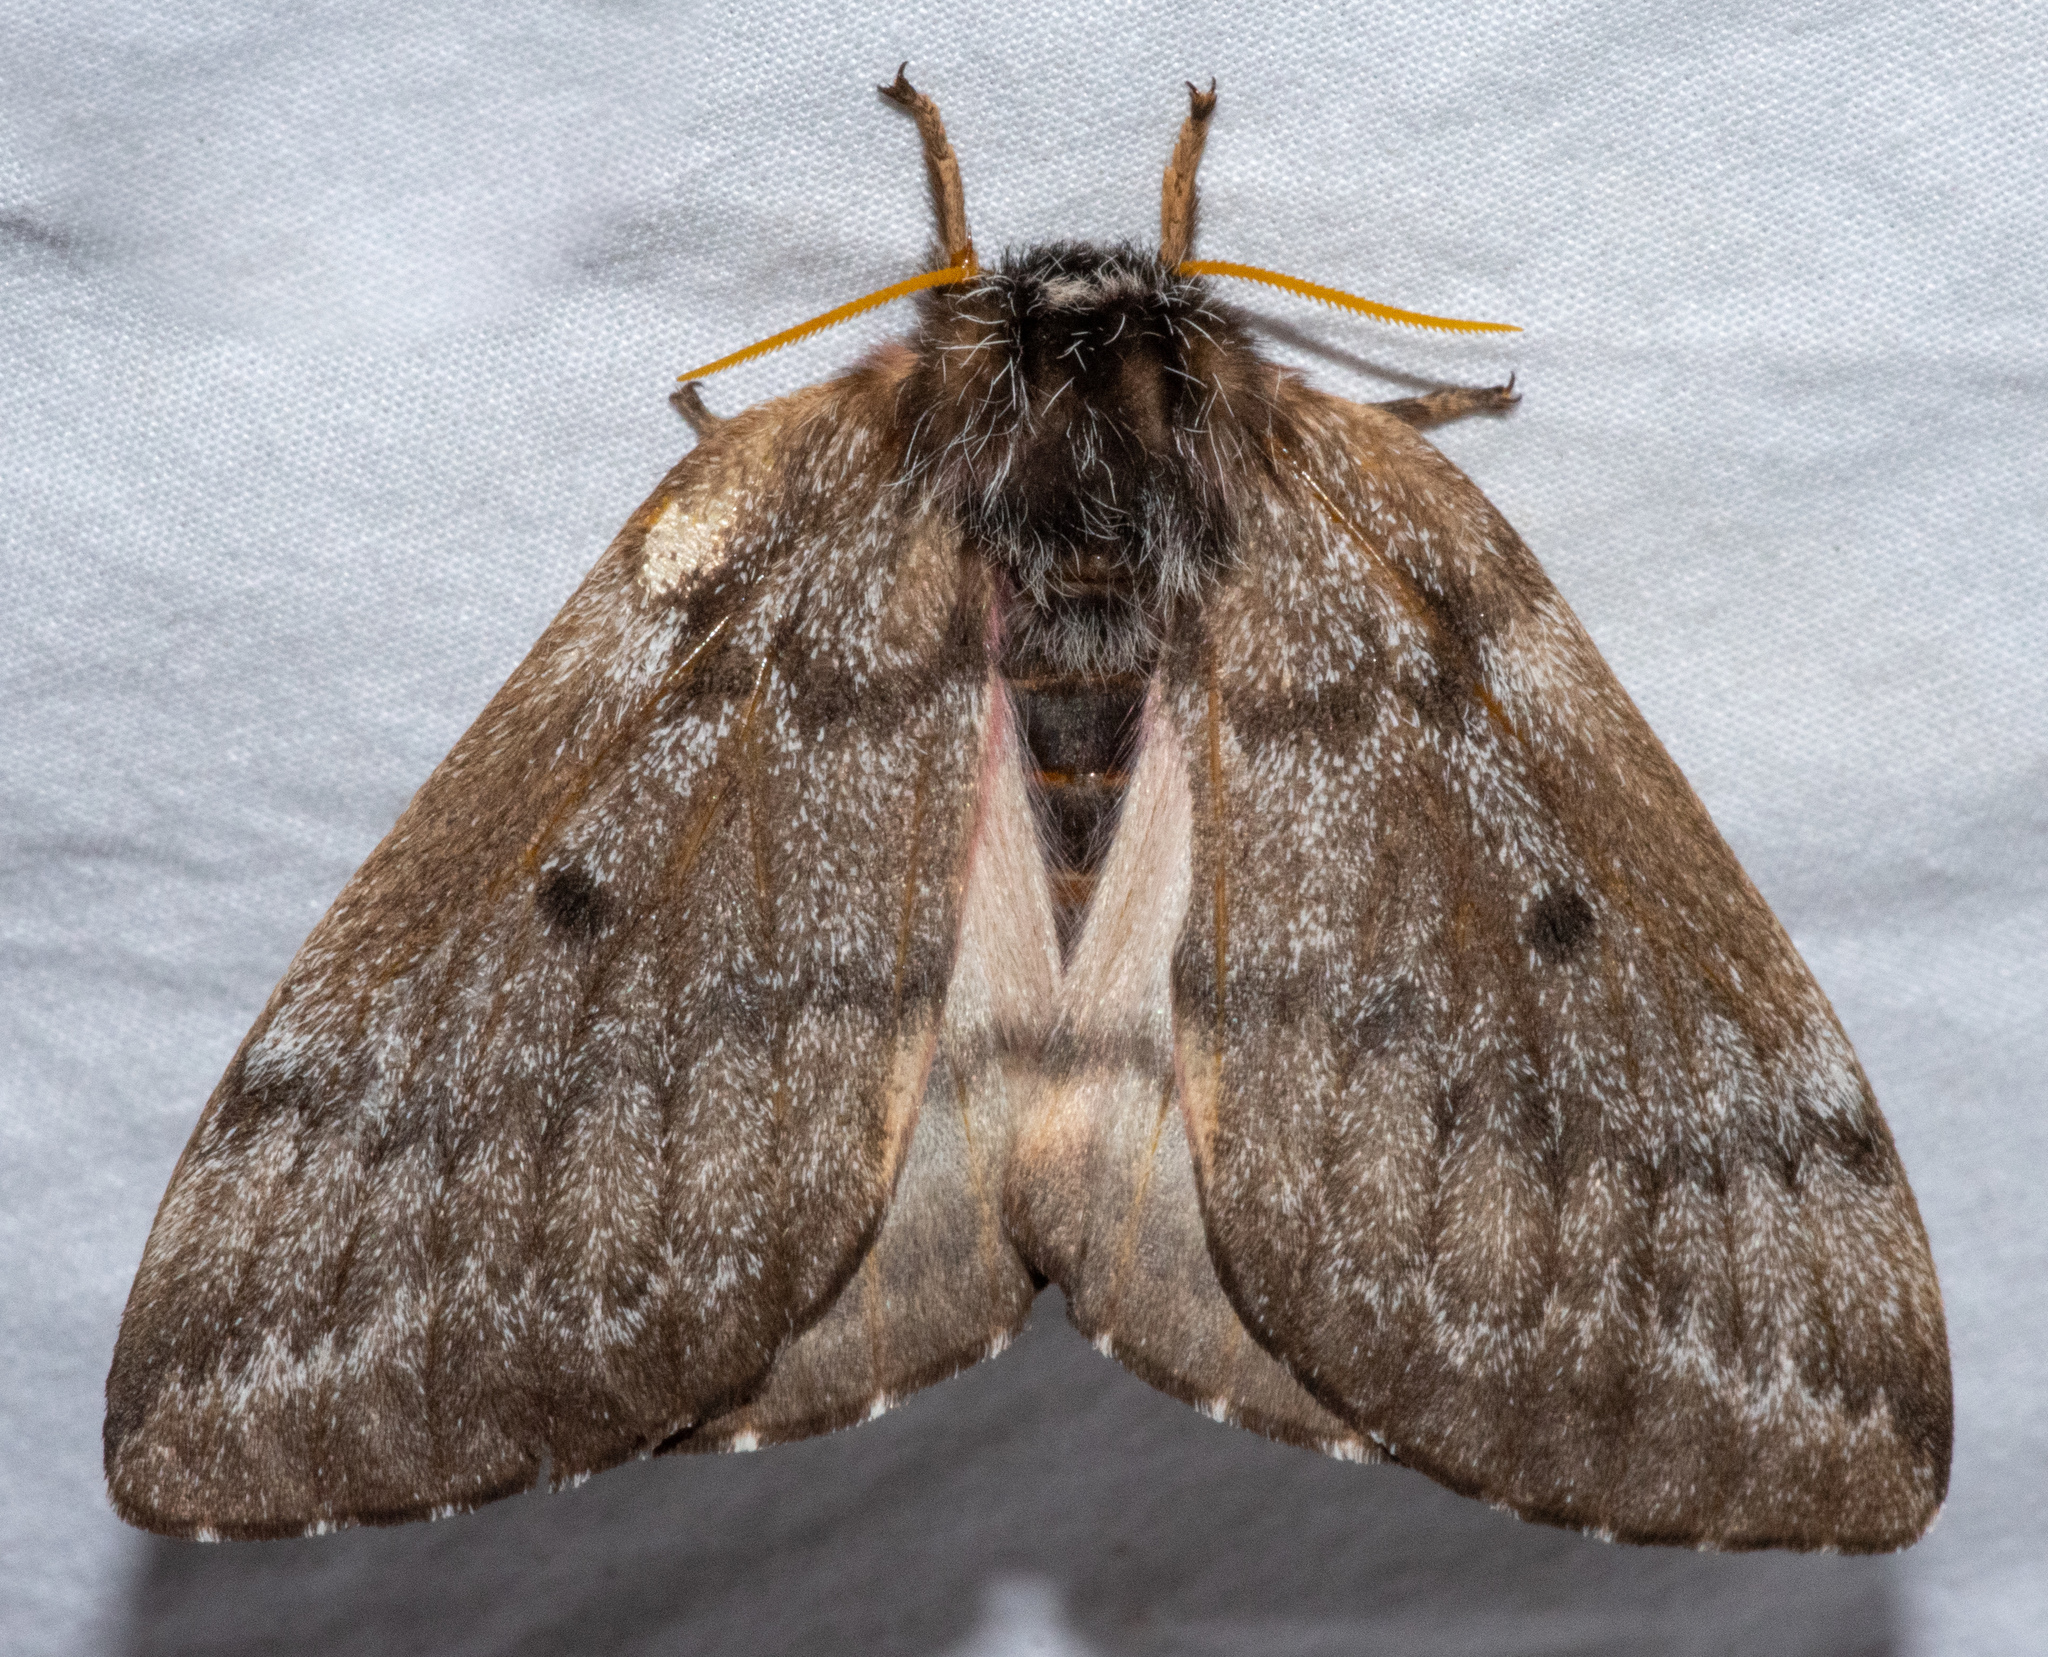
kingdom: Animalia
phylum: Arthropoda
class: Insecta
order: Lepidoptera
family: Saturniidae
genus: Coloradia
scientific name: Coloradia pandora
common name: Pandora pinemoth
